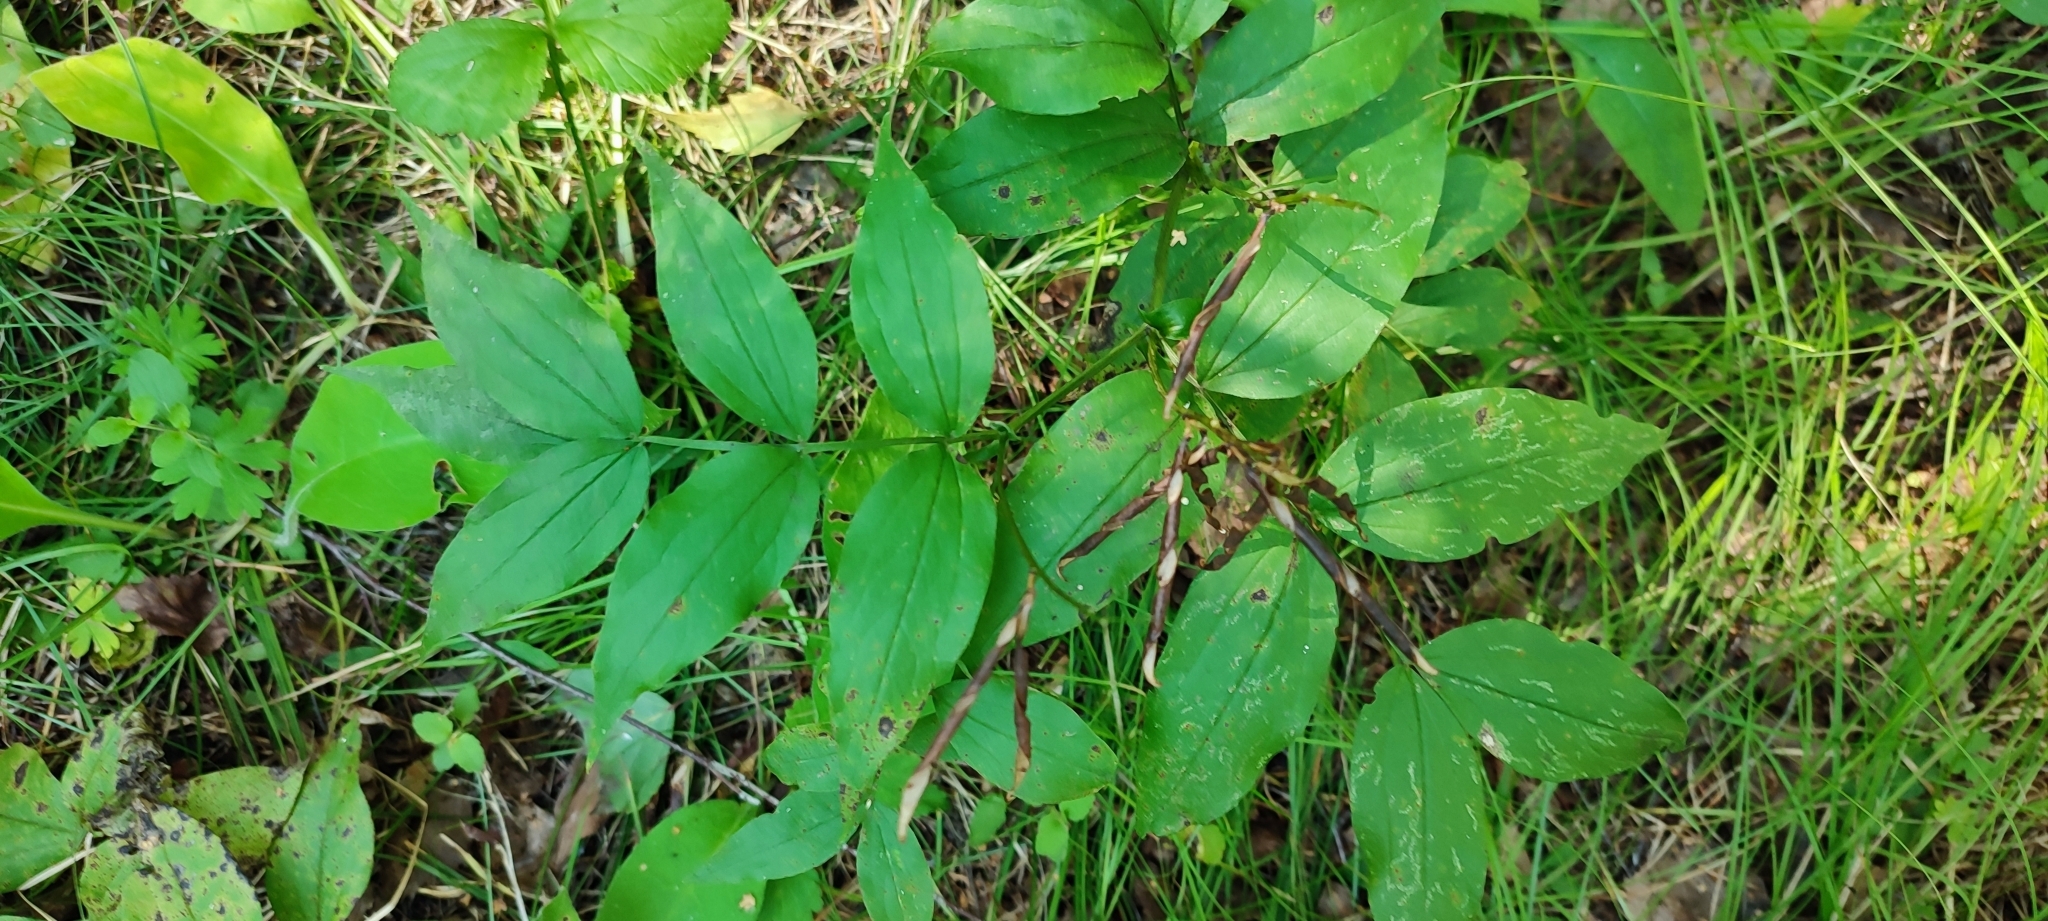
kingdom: Plantae
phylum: Tracheophyta
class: Magnoliopsida
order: Fabales
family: Fabaceae
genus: Lathyrus
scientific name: Lathyrus vernus
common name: Spring pea
